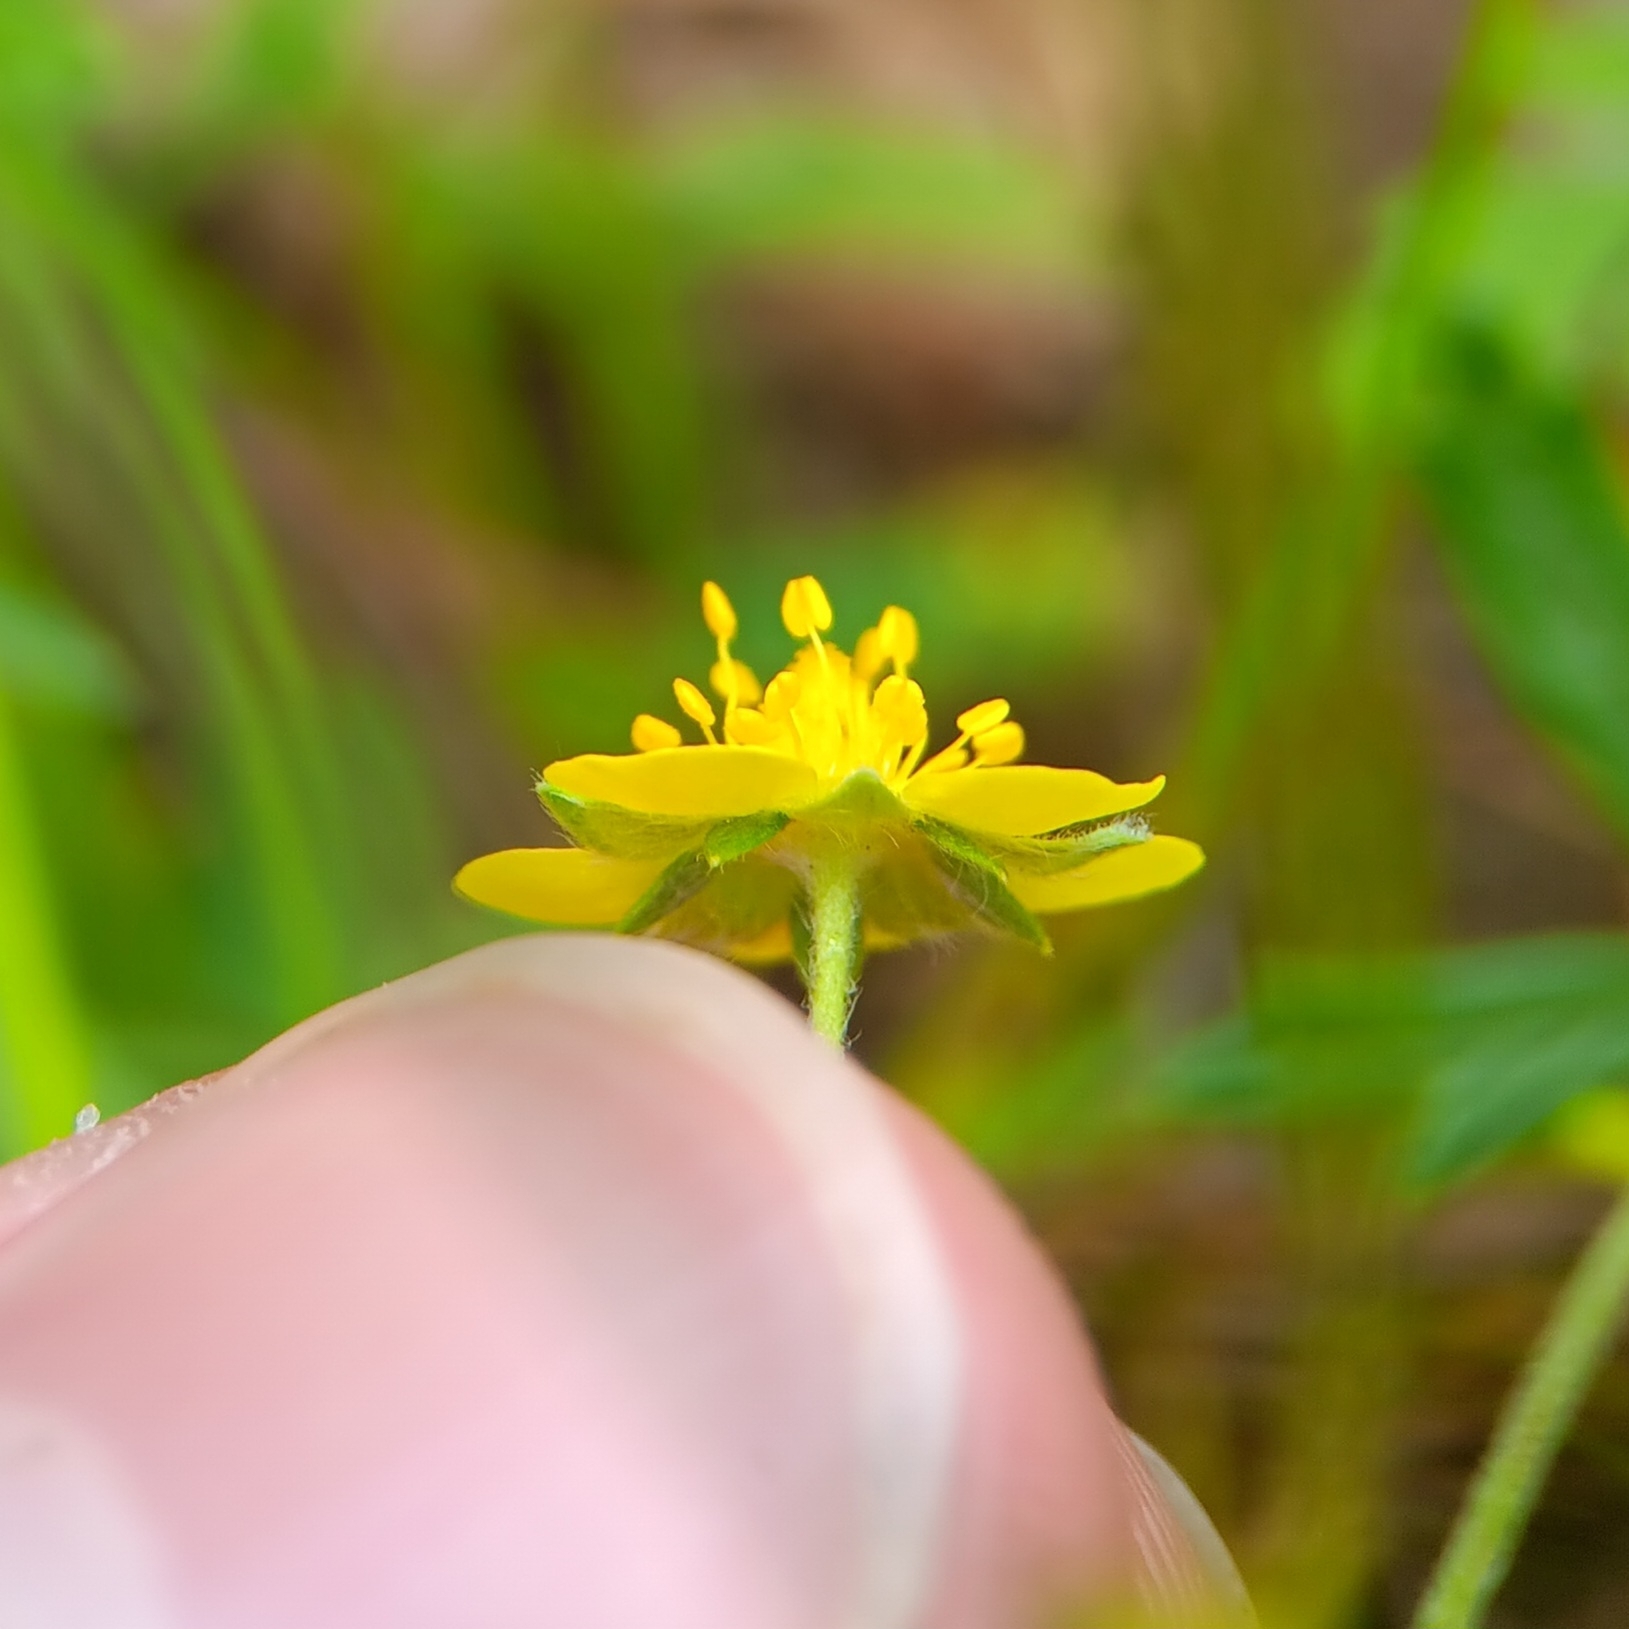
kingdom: Plantae
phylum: Tracheophyta
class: Magnoliopsida
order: Rosales
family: Rosaceae
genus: Potentilla
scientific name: Potentilla argentea
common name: Hoary cinquefoil
